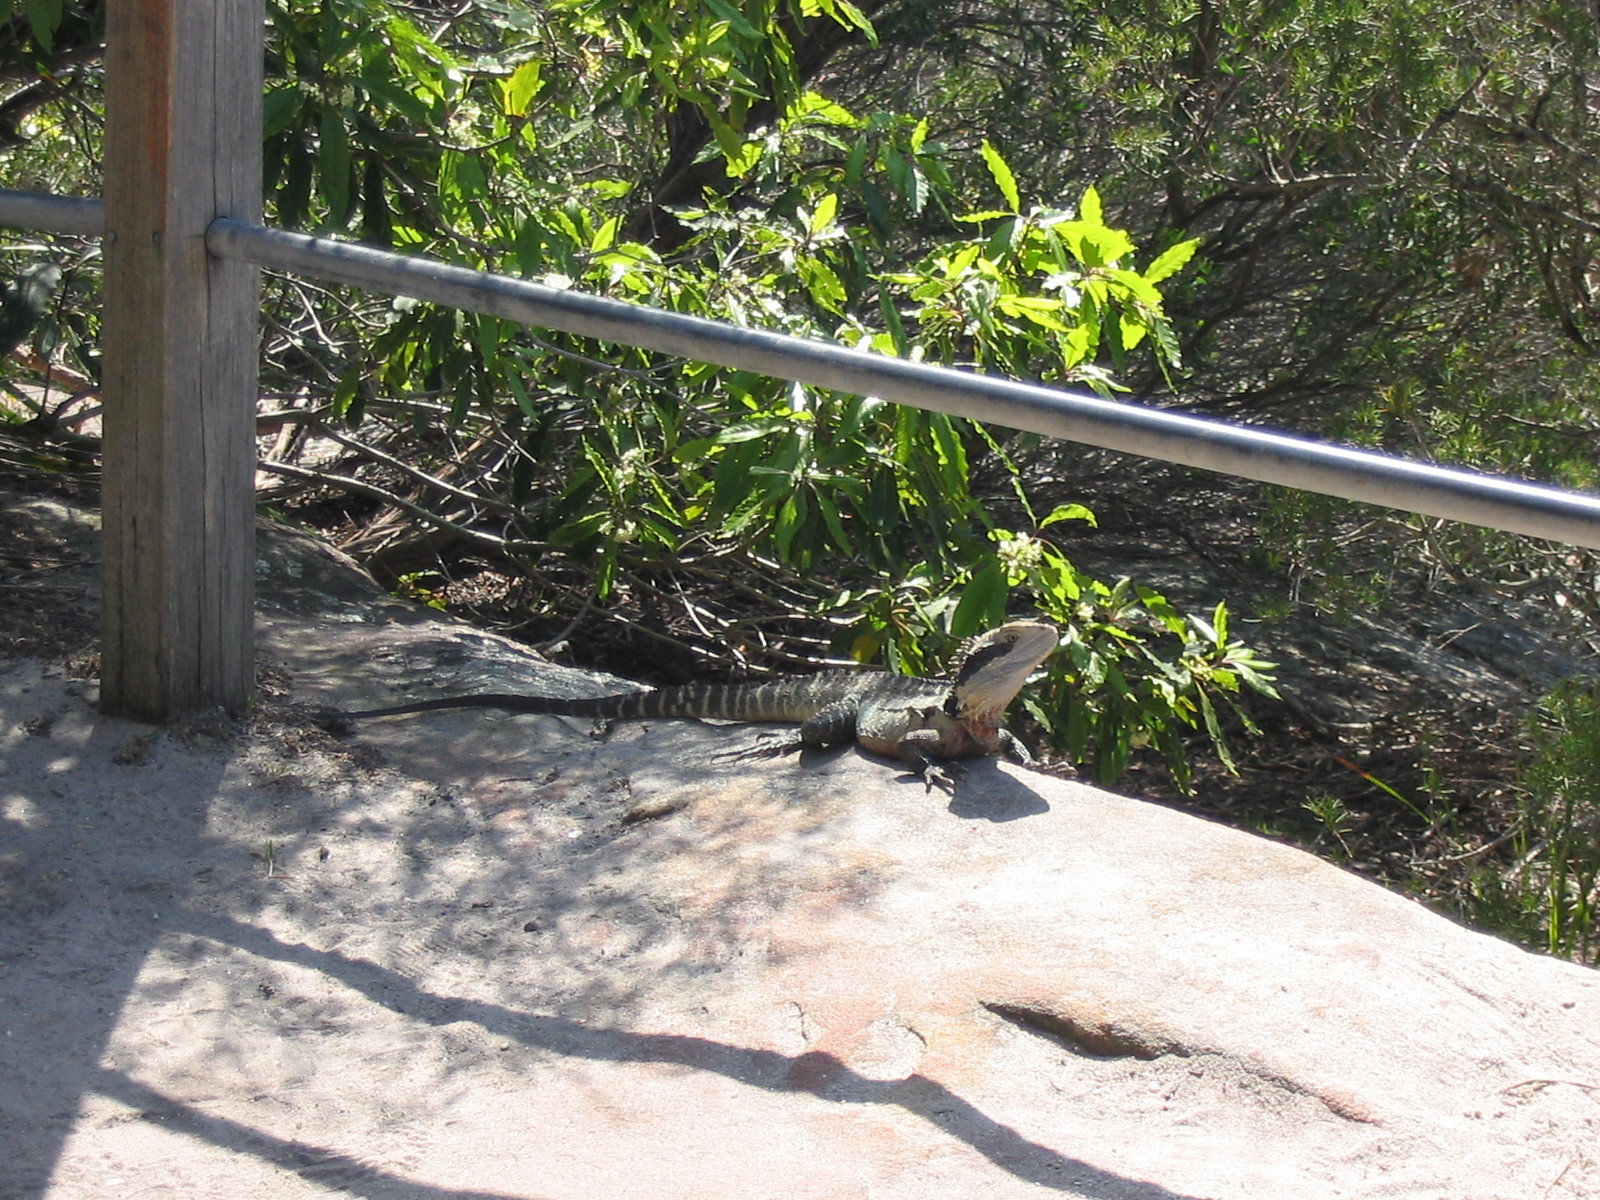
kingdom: Animalia
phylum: Chordata
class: Squamata
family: Agamidae
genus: Intellagama
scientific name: Intellagama lesueurii
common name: Eastern water dragon
